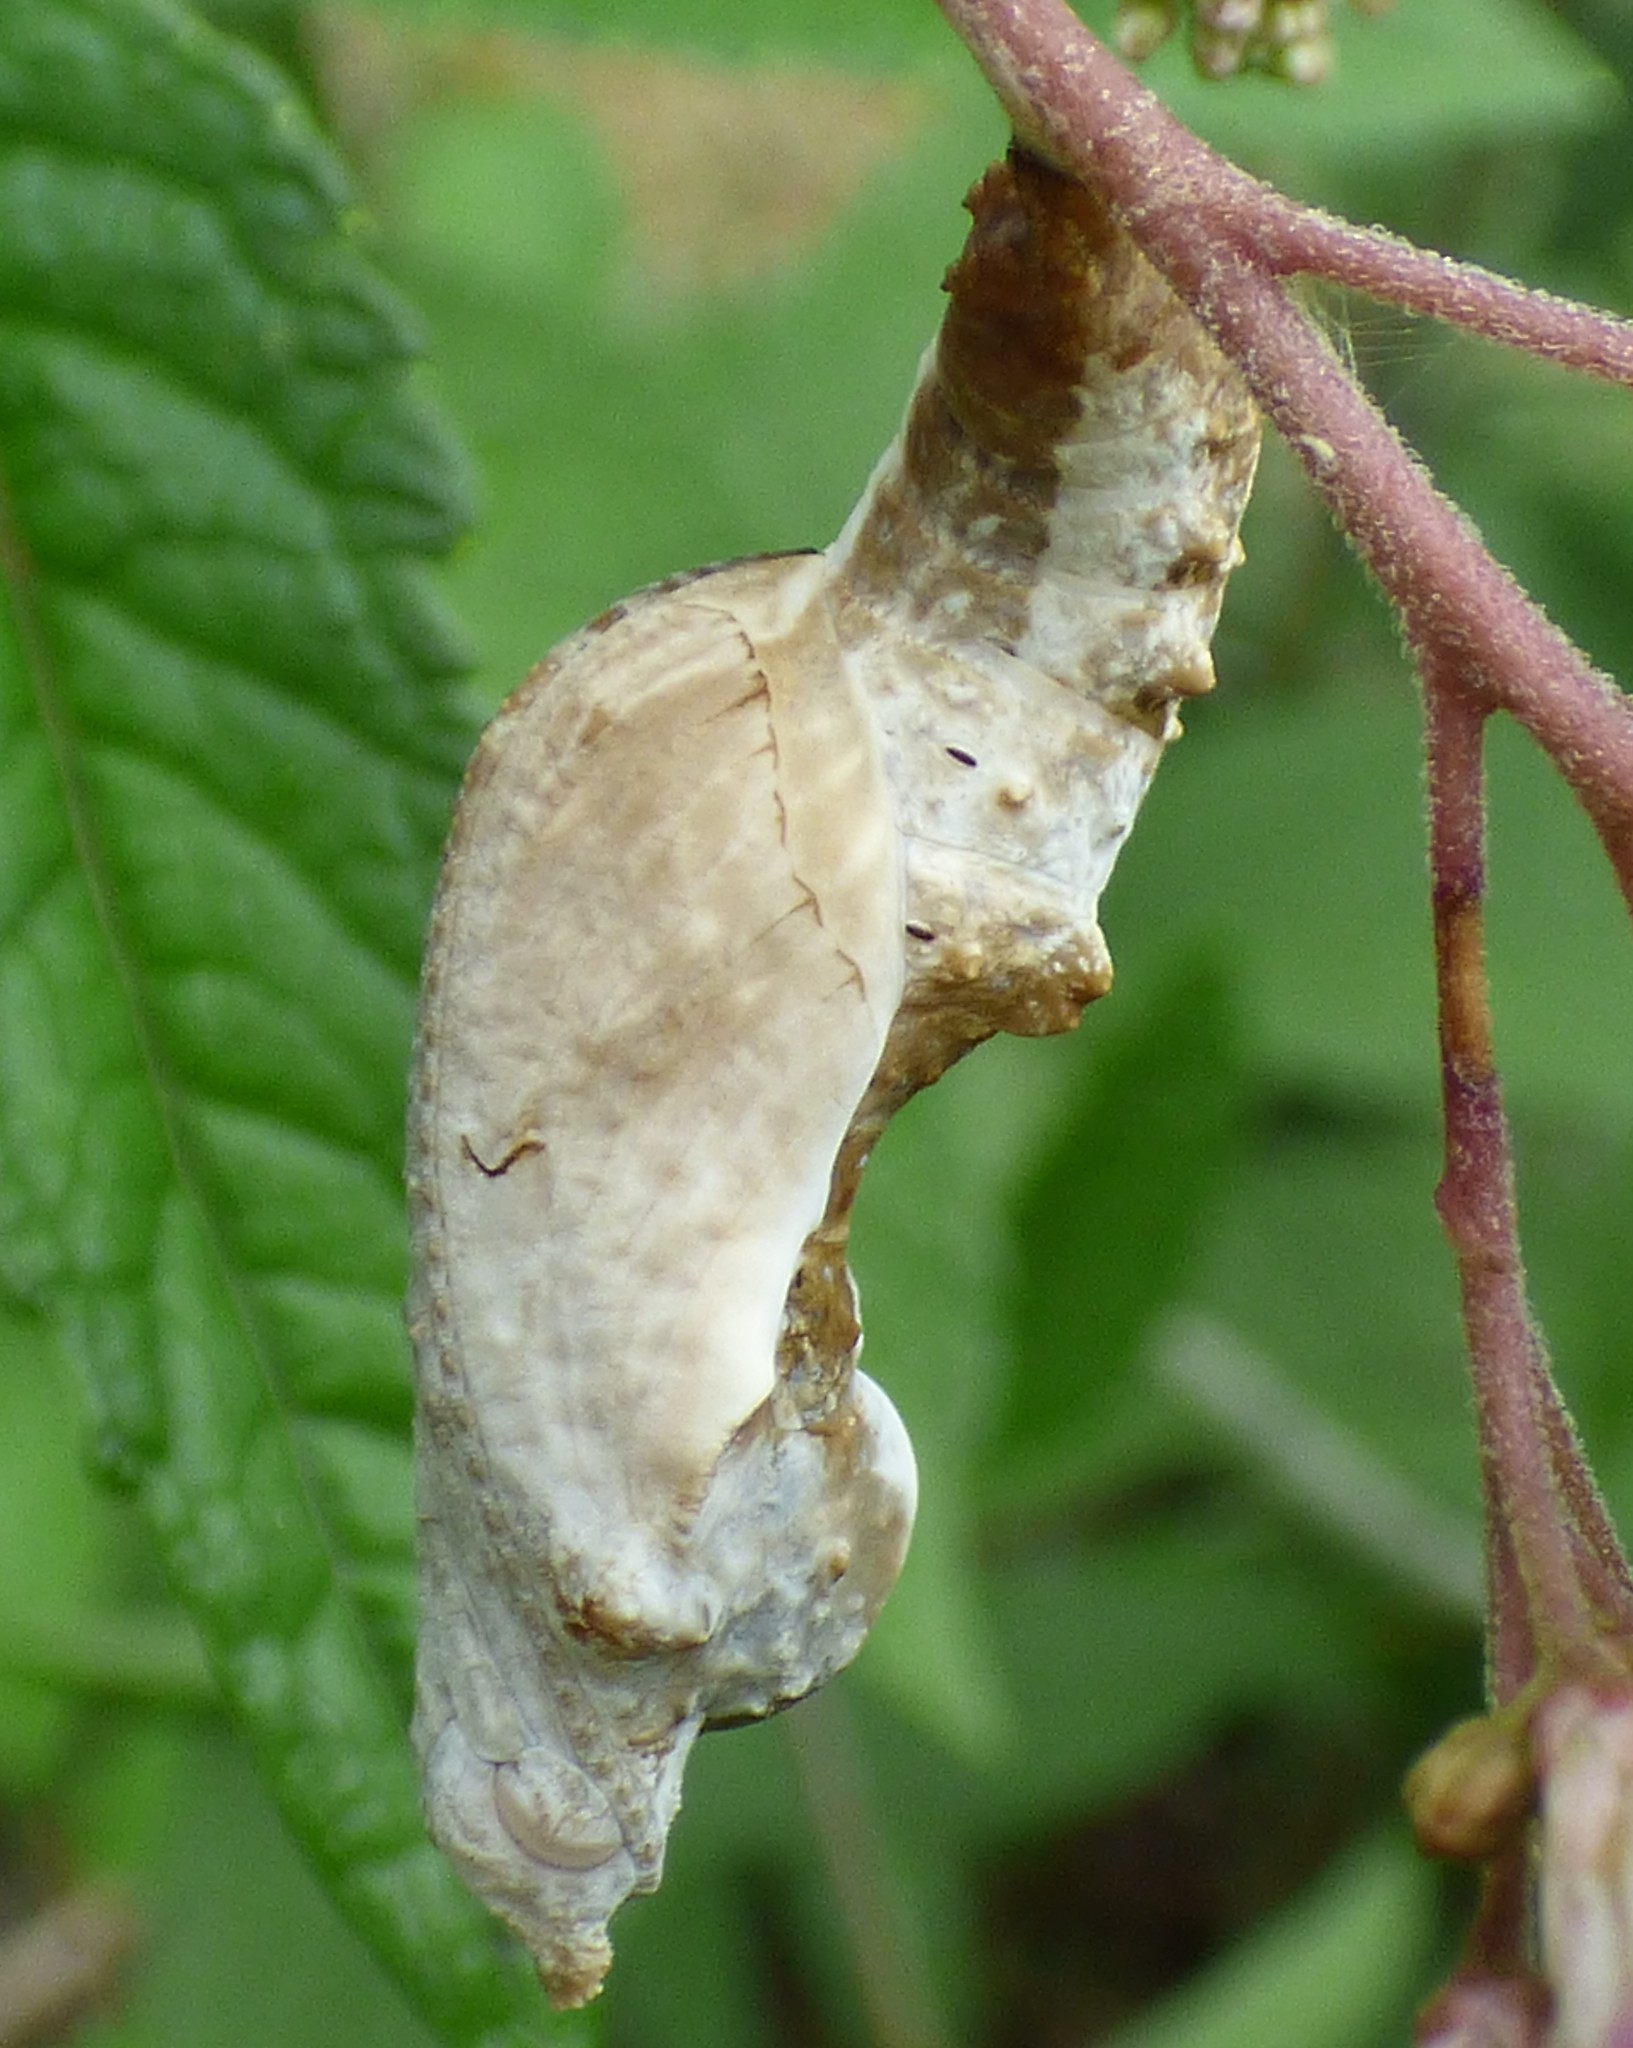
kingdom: Animalia
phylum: Arthropoda
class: Insecta
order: Lepidoptera
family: Nymphalidae
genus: Dione
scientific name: Dione vanillae
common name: Gulf fritillary
